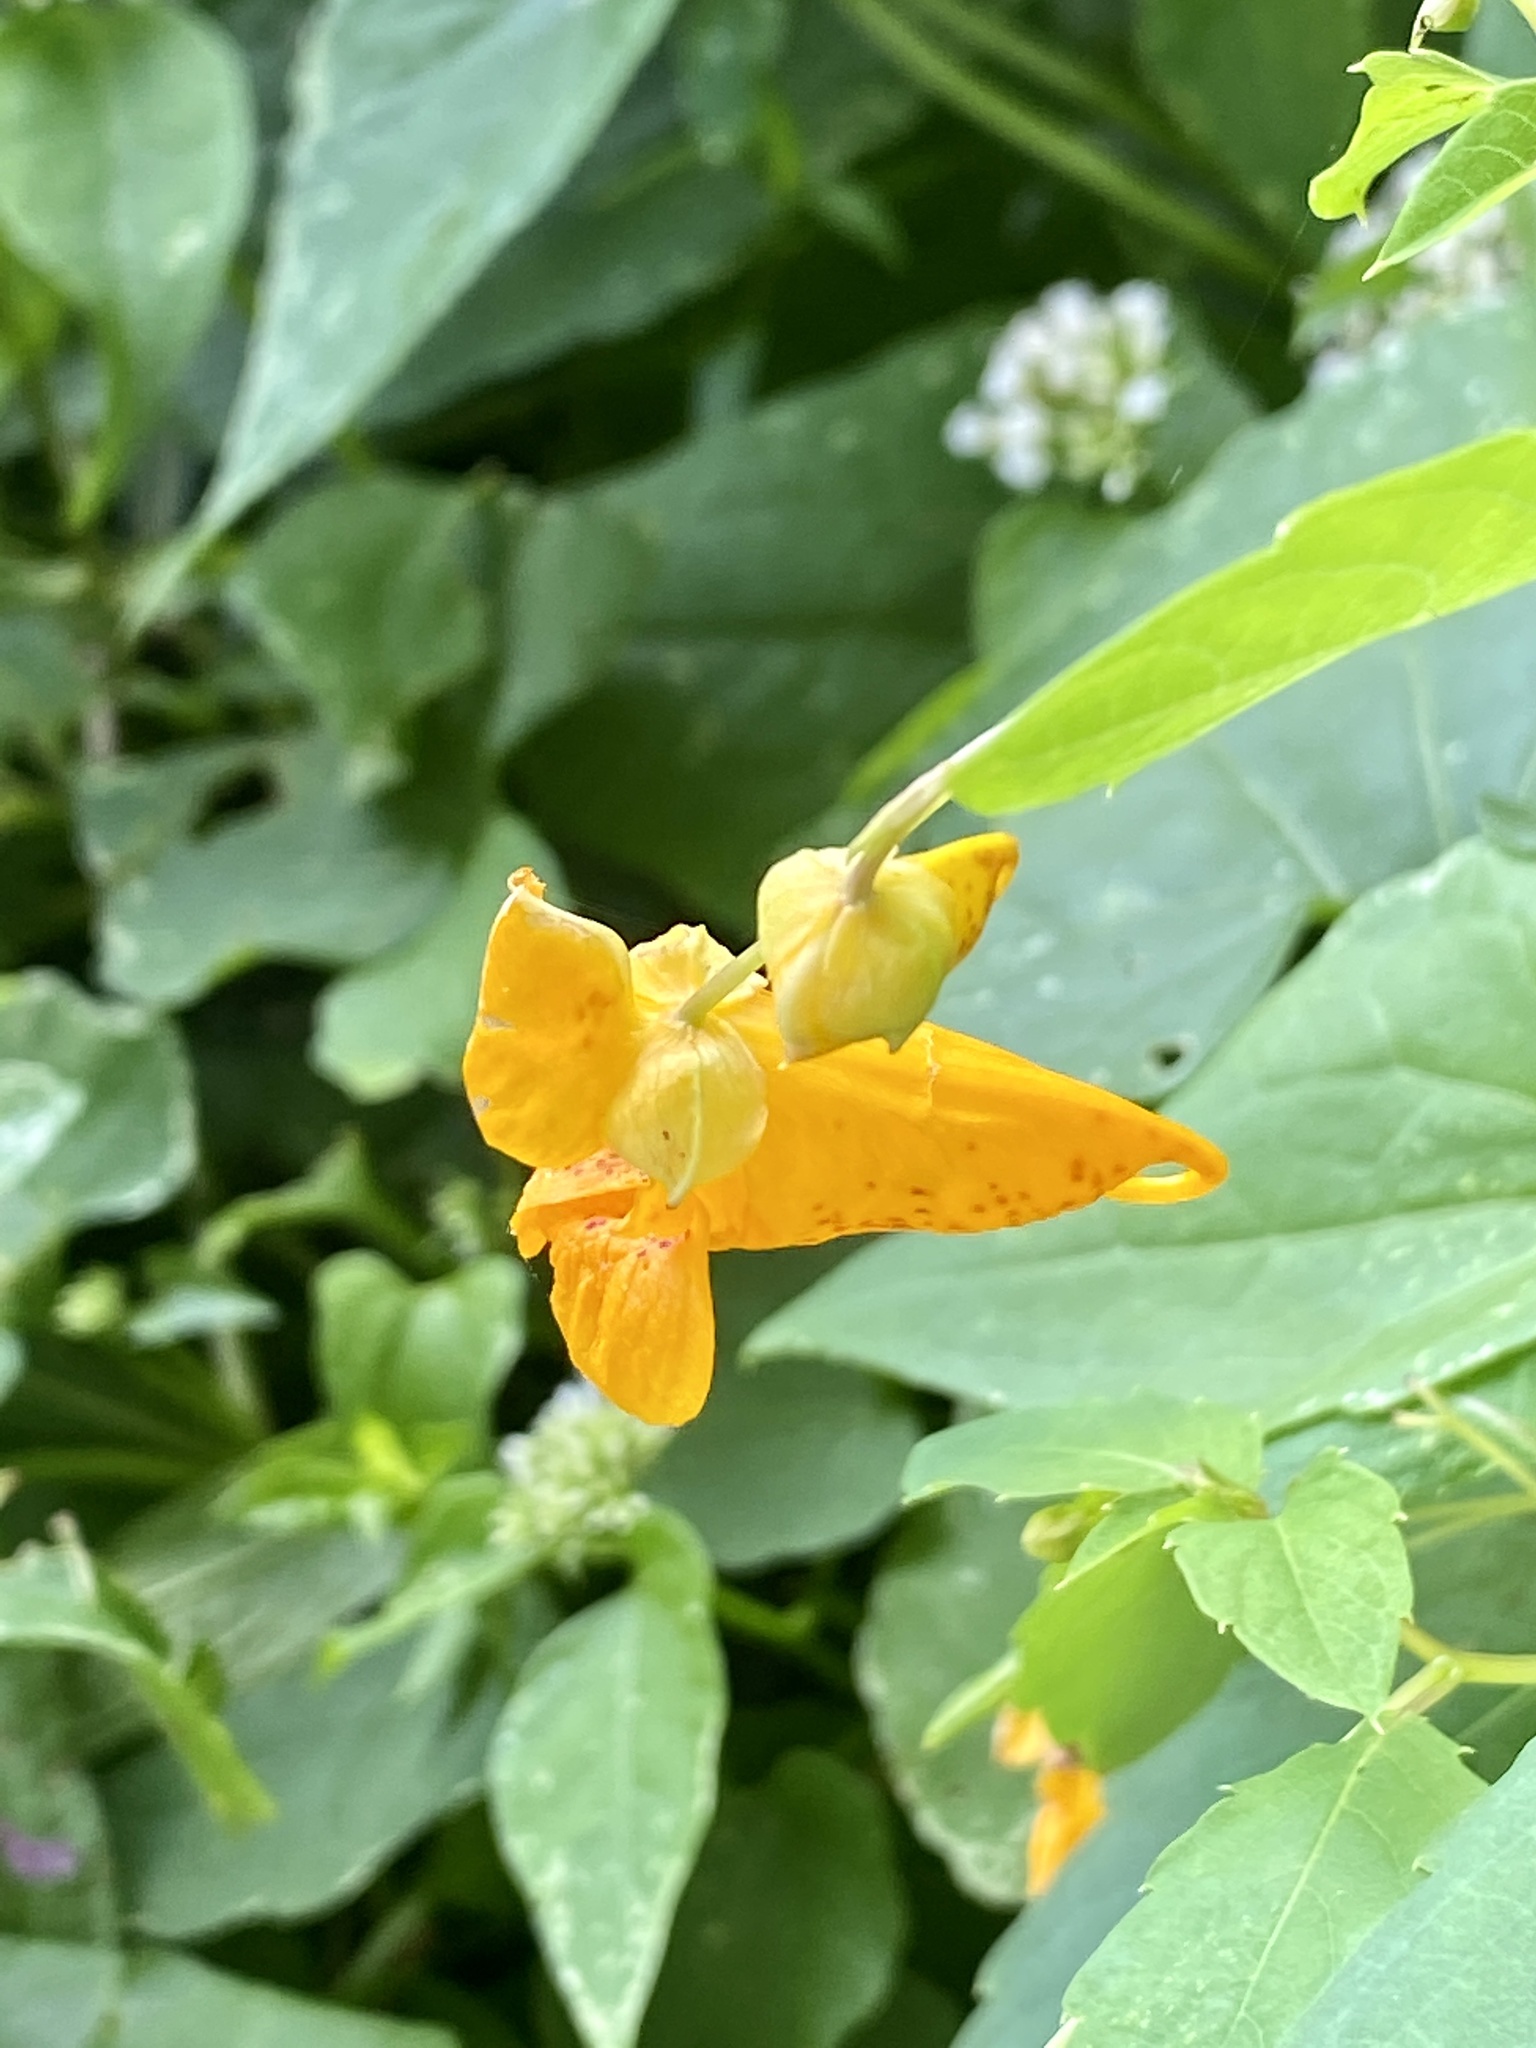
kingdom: Plantae
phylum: Tracheophyta
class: Magnoliopsida
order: Ericales
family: Balsaminaceae
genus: Impatiens
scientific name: Impatiens capensis
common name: Orange balsam
